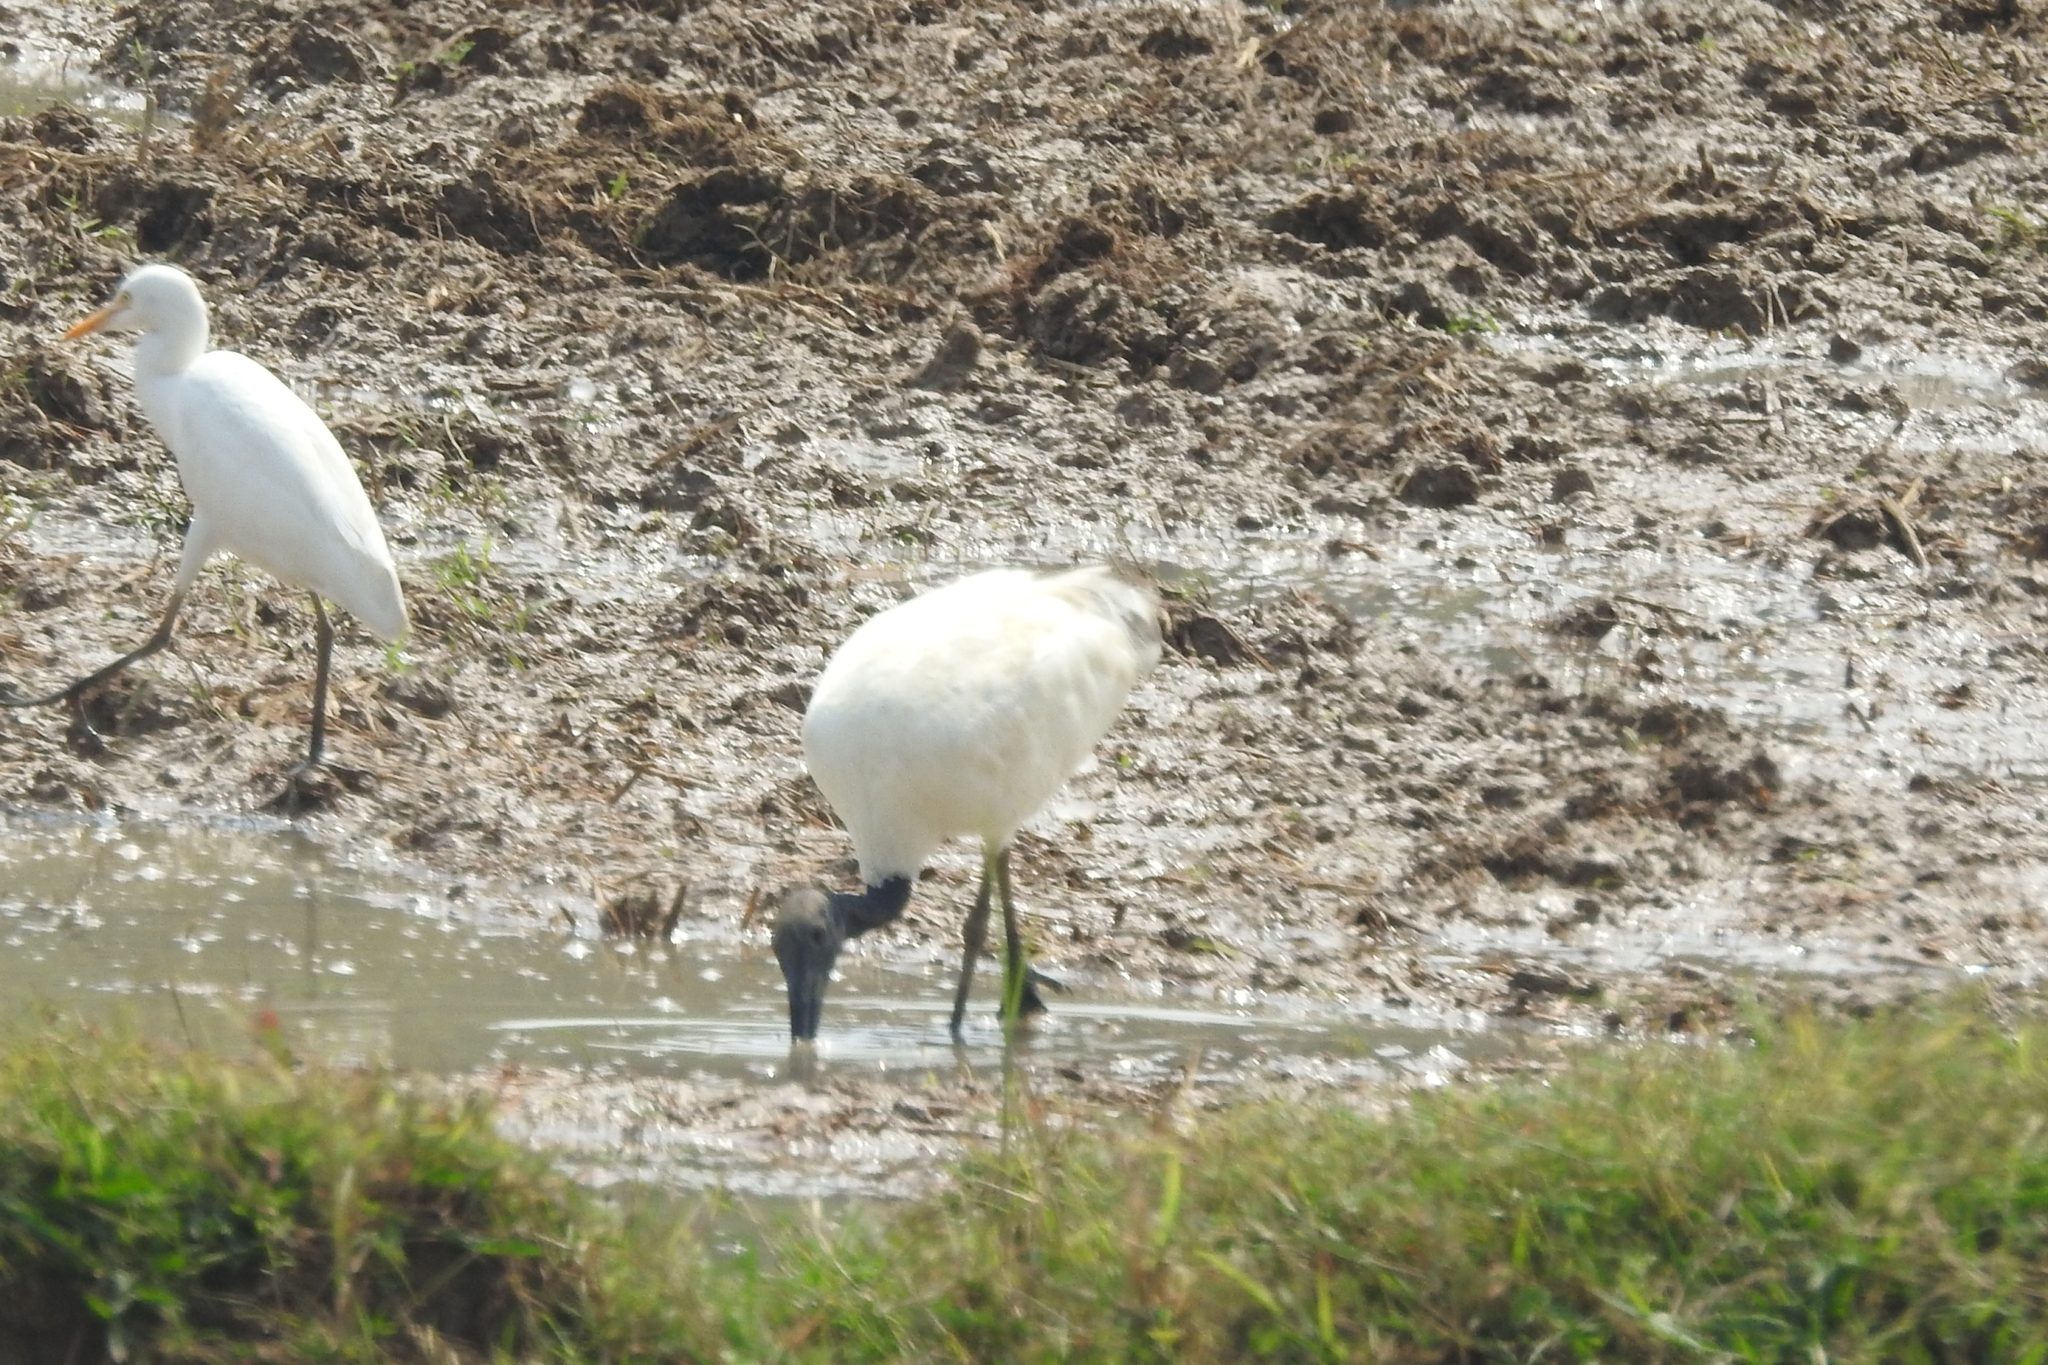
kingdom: Animalia
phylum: Chordata
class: Aves
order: Pelecaniformes
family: Threskiornithidae
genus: Threskiornis
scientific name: Threskiornis melanocephalus
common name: Black-headed ibis
